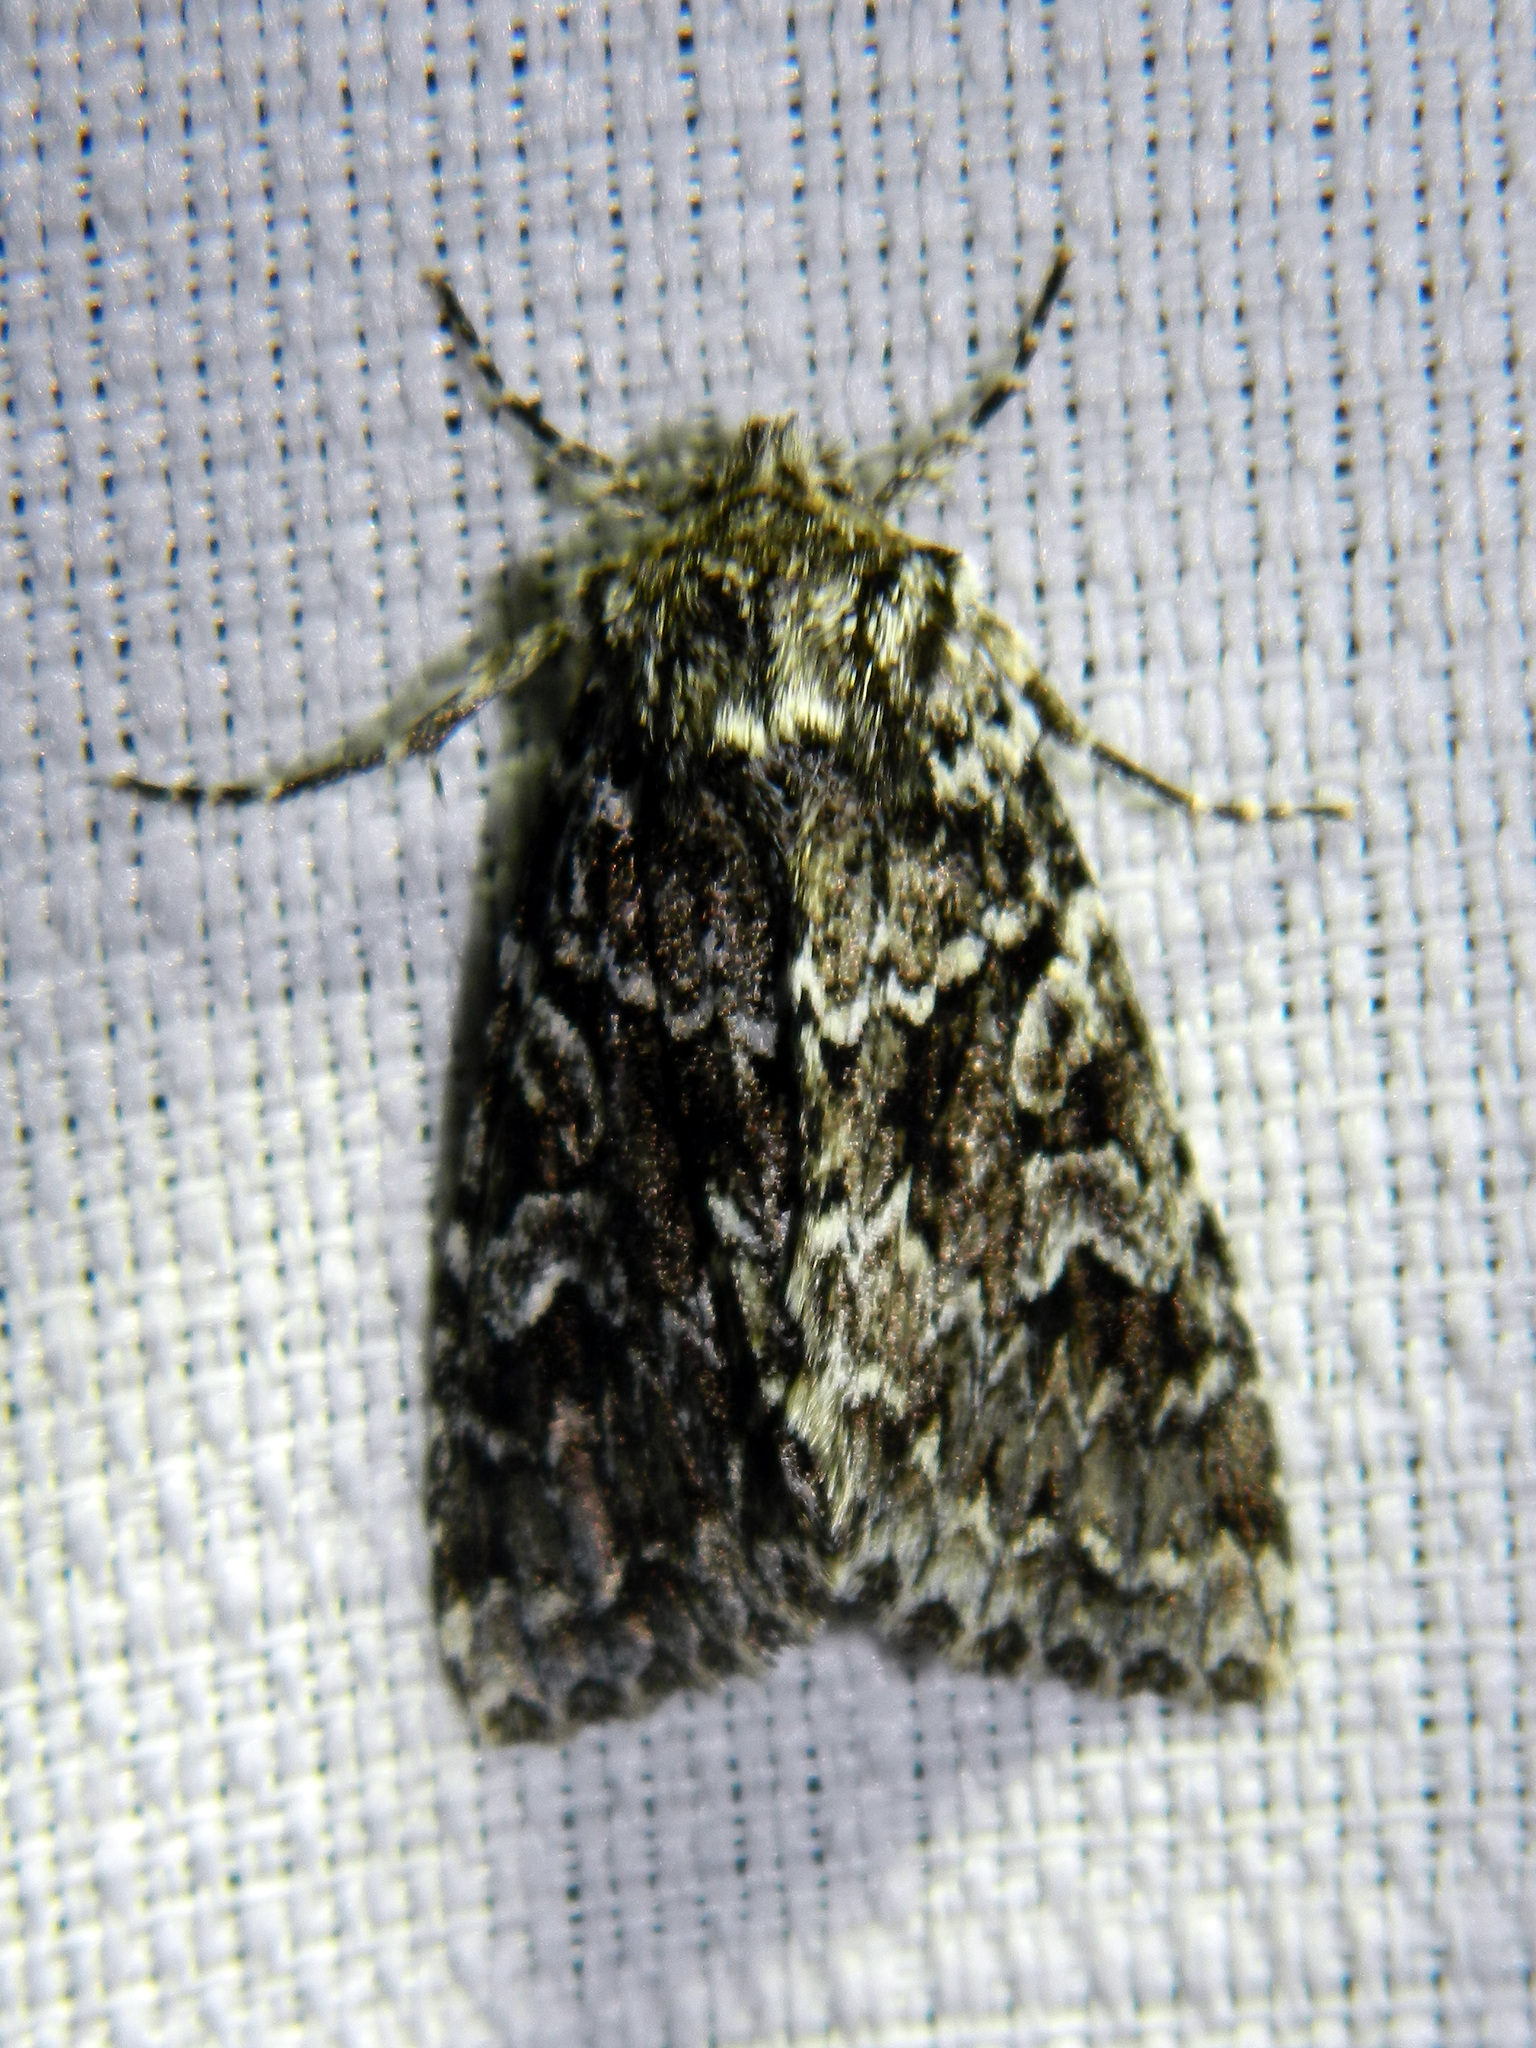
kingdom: Animalia
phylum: Arthropoda
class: Insecta
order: Lepidoptera
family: Noctuidae
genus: Platypolia
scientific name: Platypolia anceps
